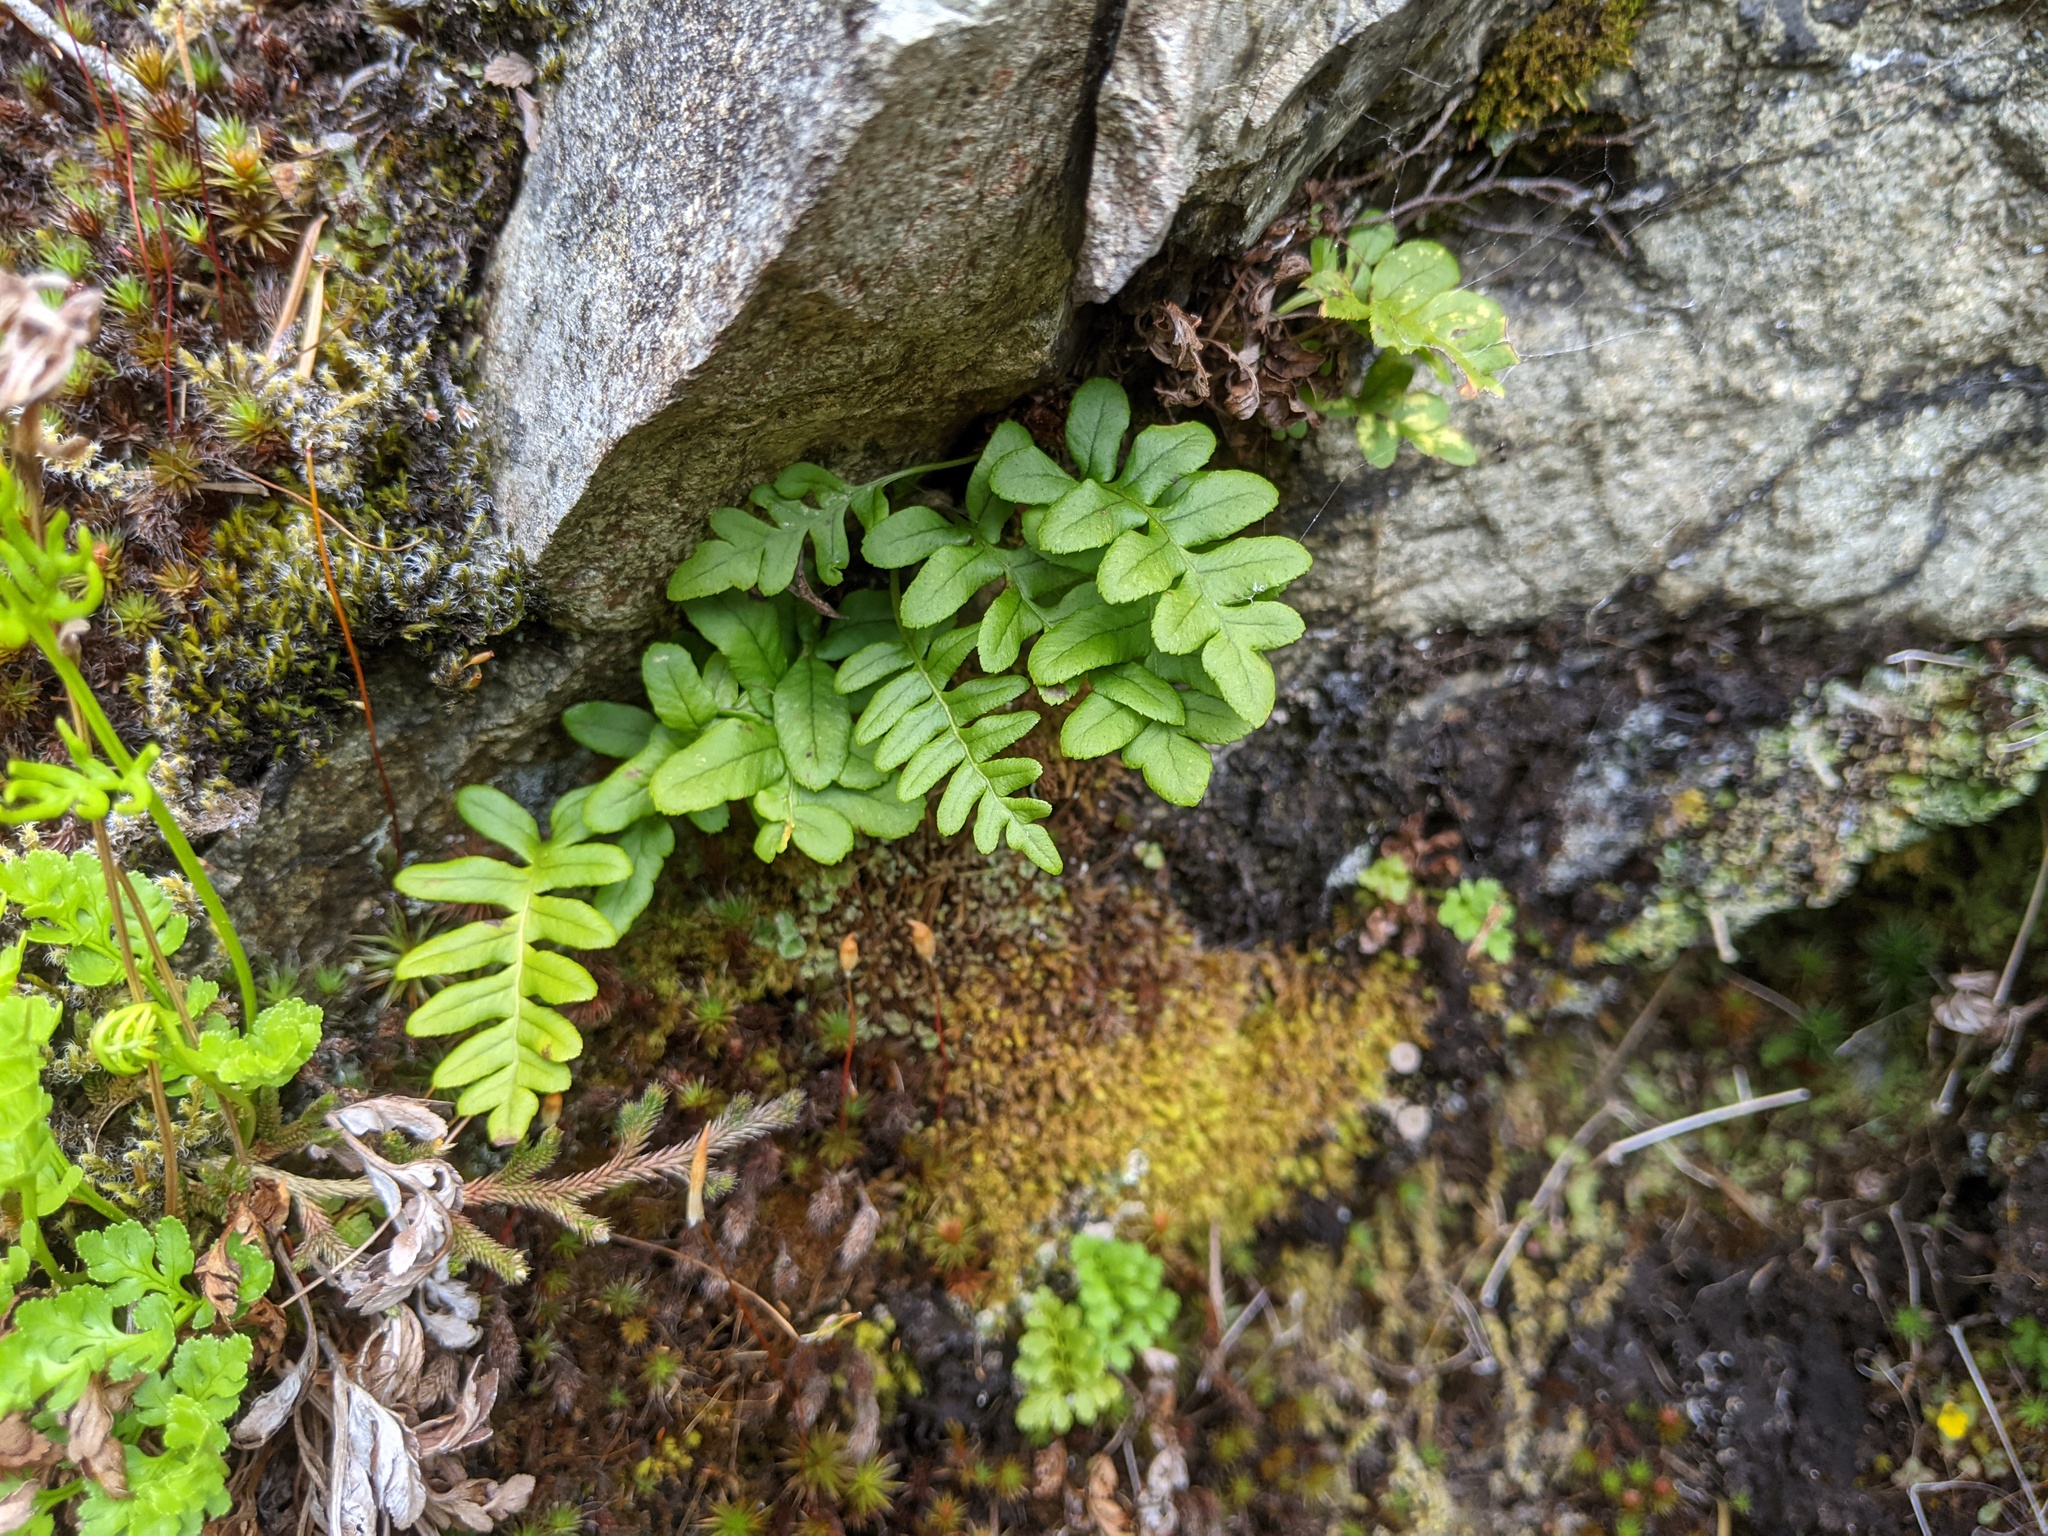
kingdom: Plantae
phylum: Tracheophyta
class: Polypodiopsida
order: Polypodiales
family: Polypodiaceae
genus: Polypodium
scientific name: Polypodium glycyrrhiza
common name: Licorice fern
